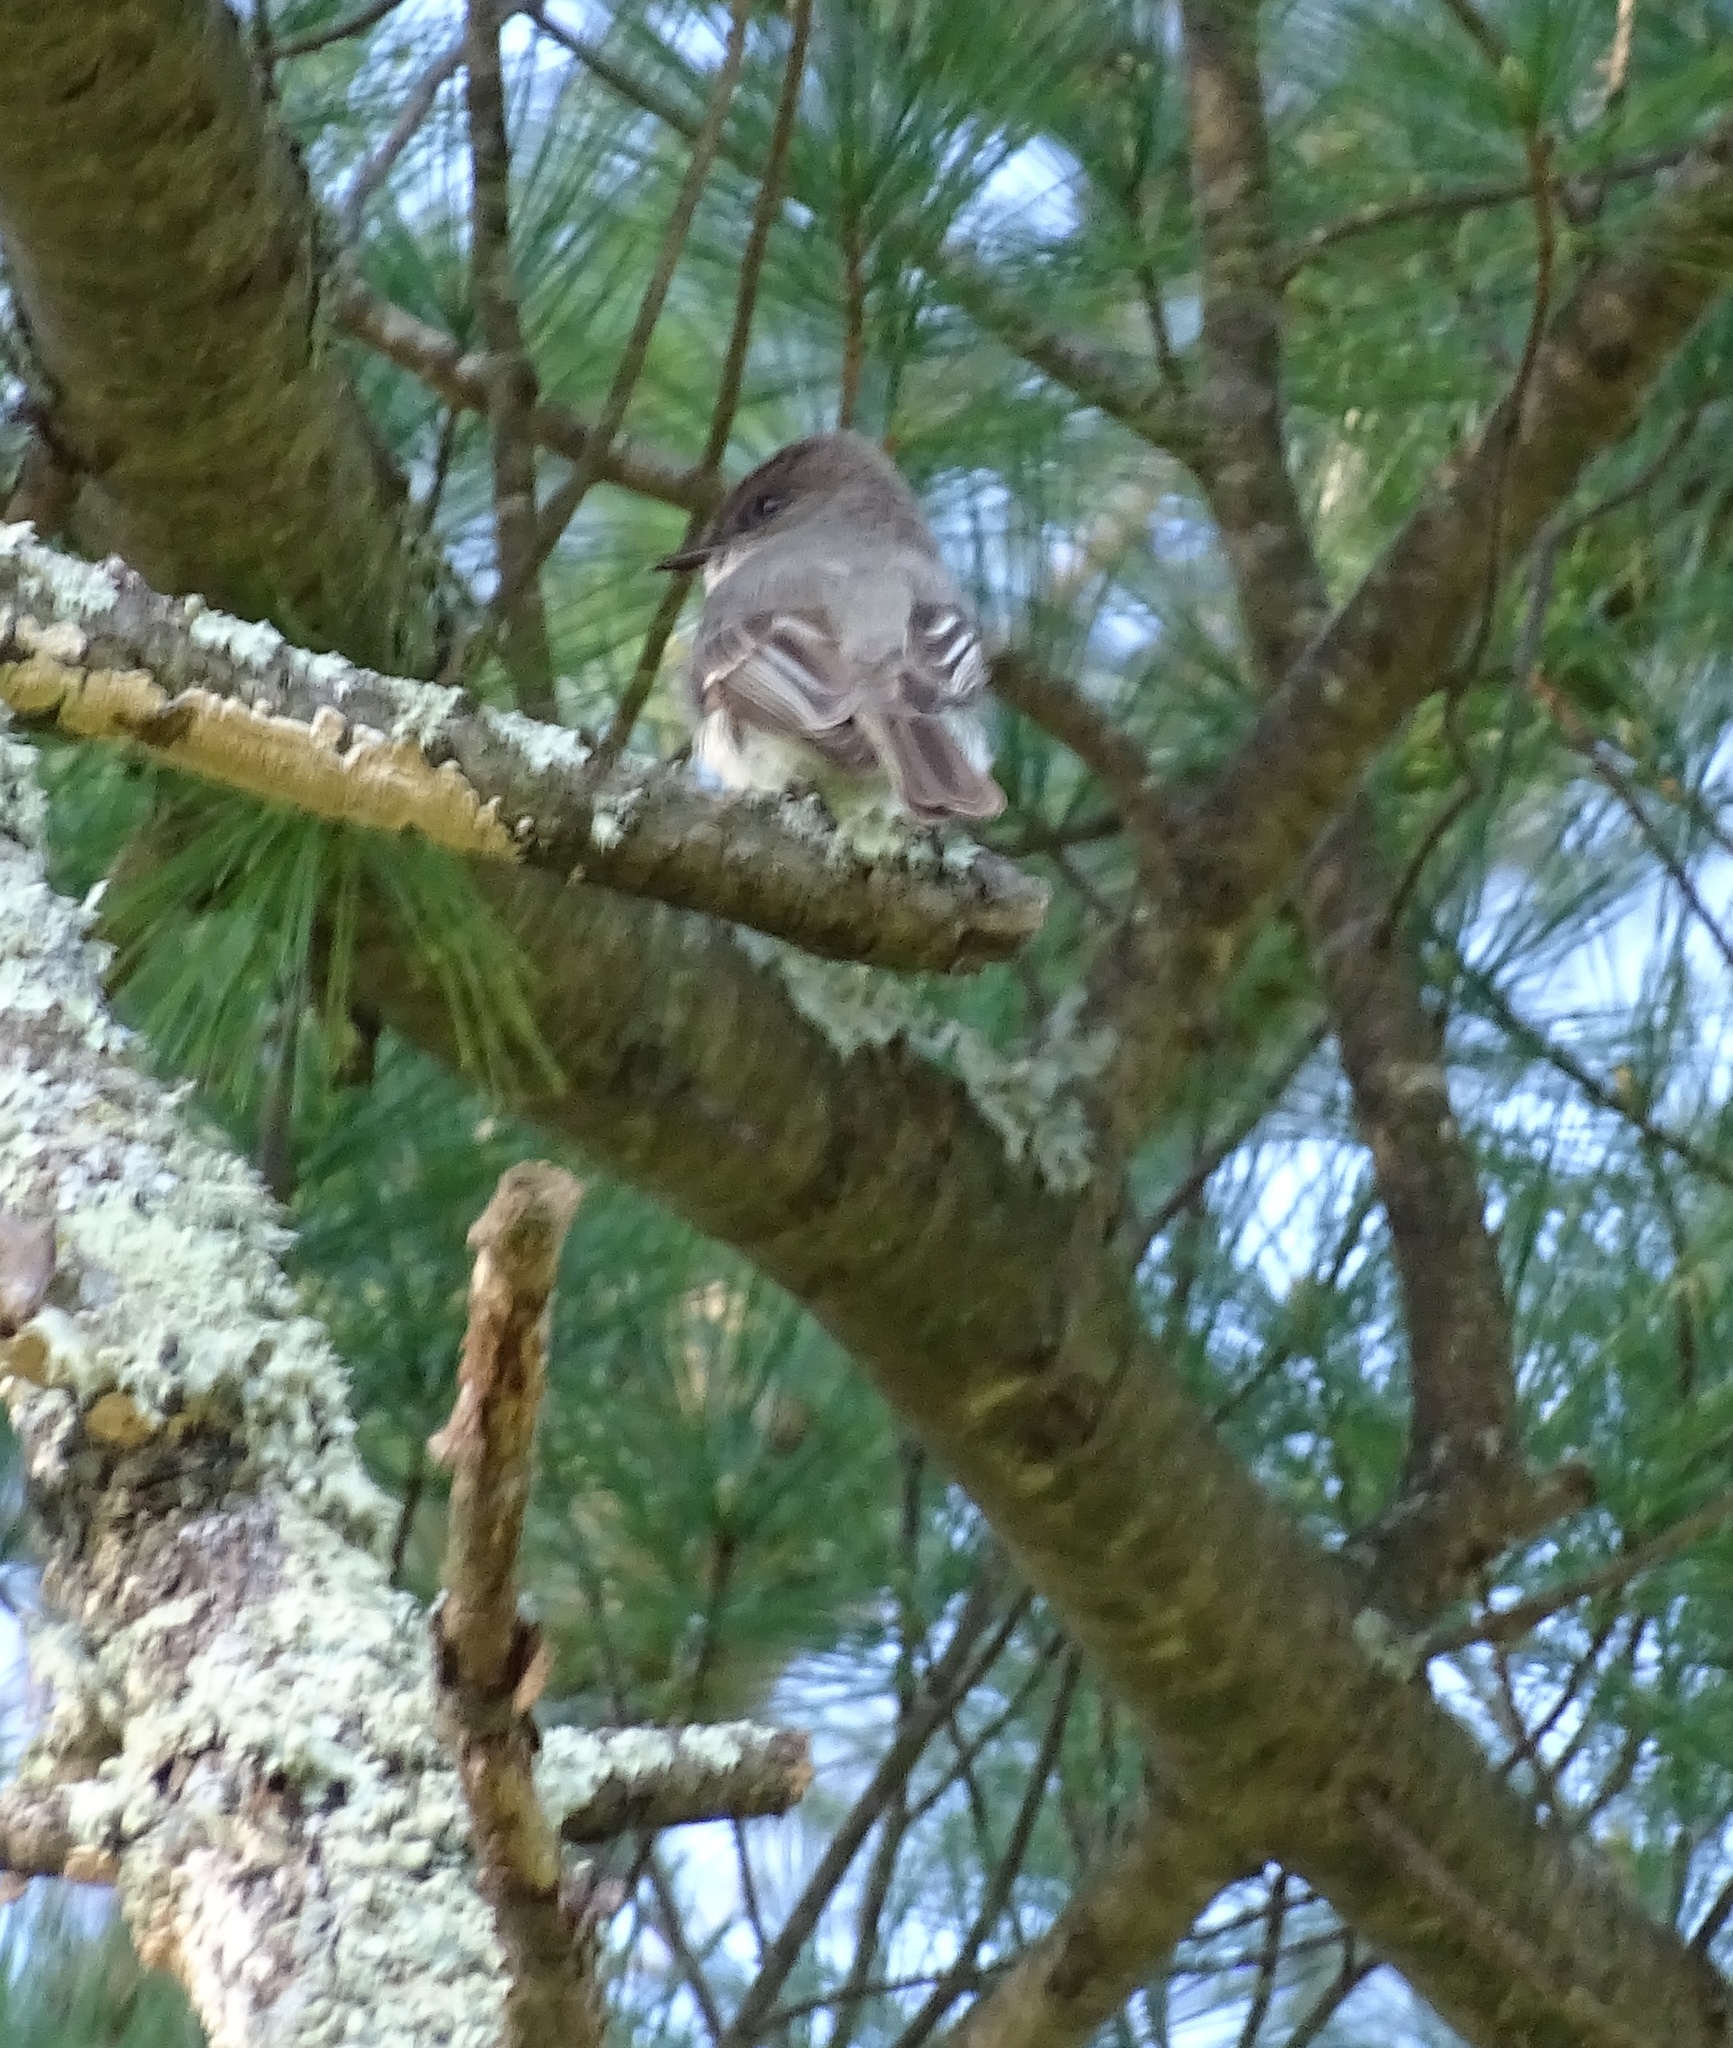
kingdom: Animalia
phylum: Chordata
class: Aves
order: Passeriformes
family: Tyrannidae
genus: Sayornis
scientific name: Sayornis phoebe
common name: Eastern phoebe
